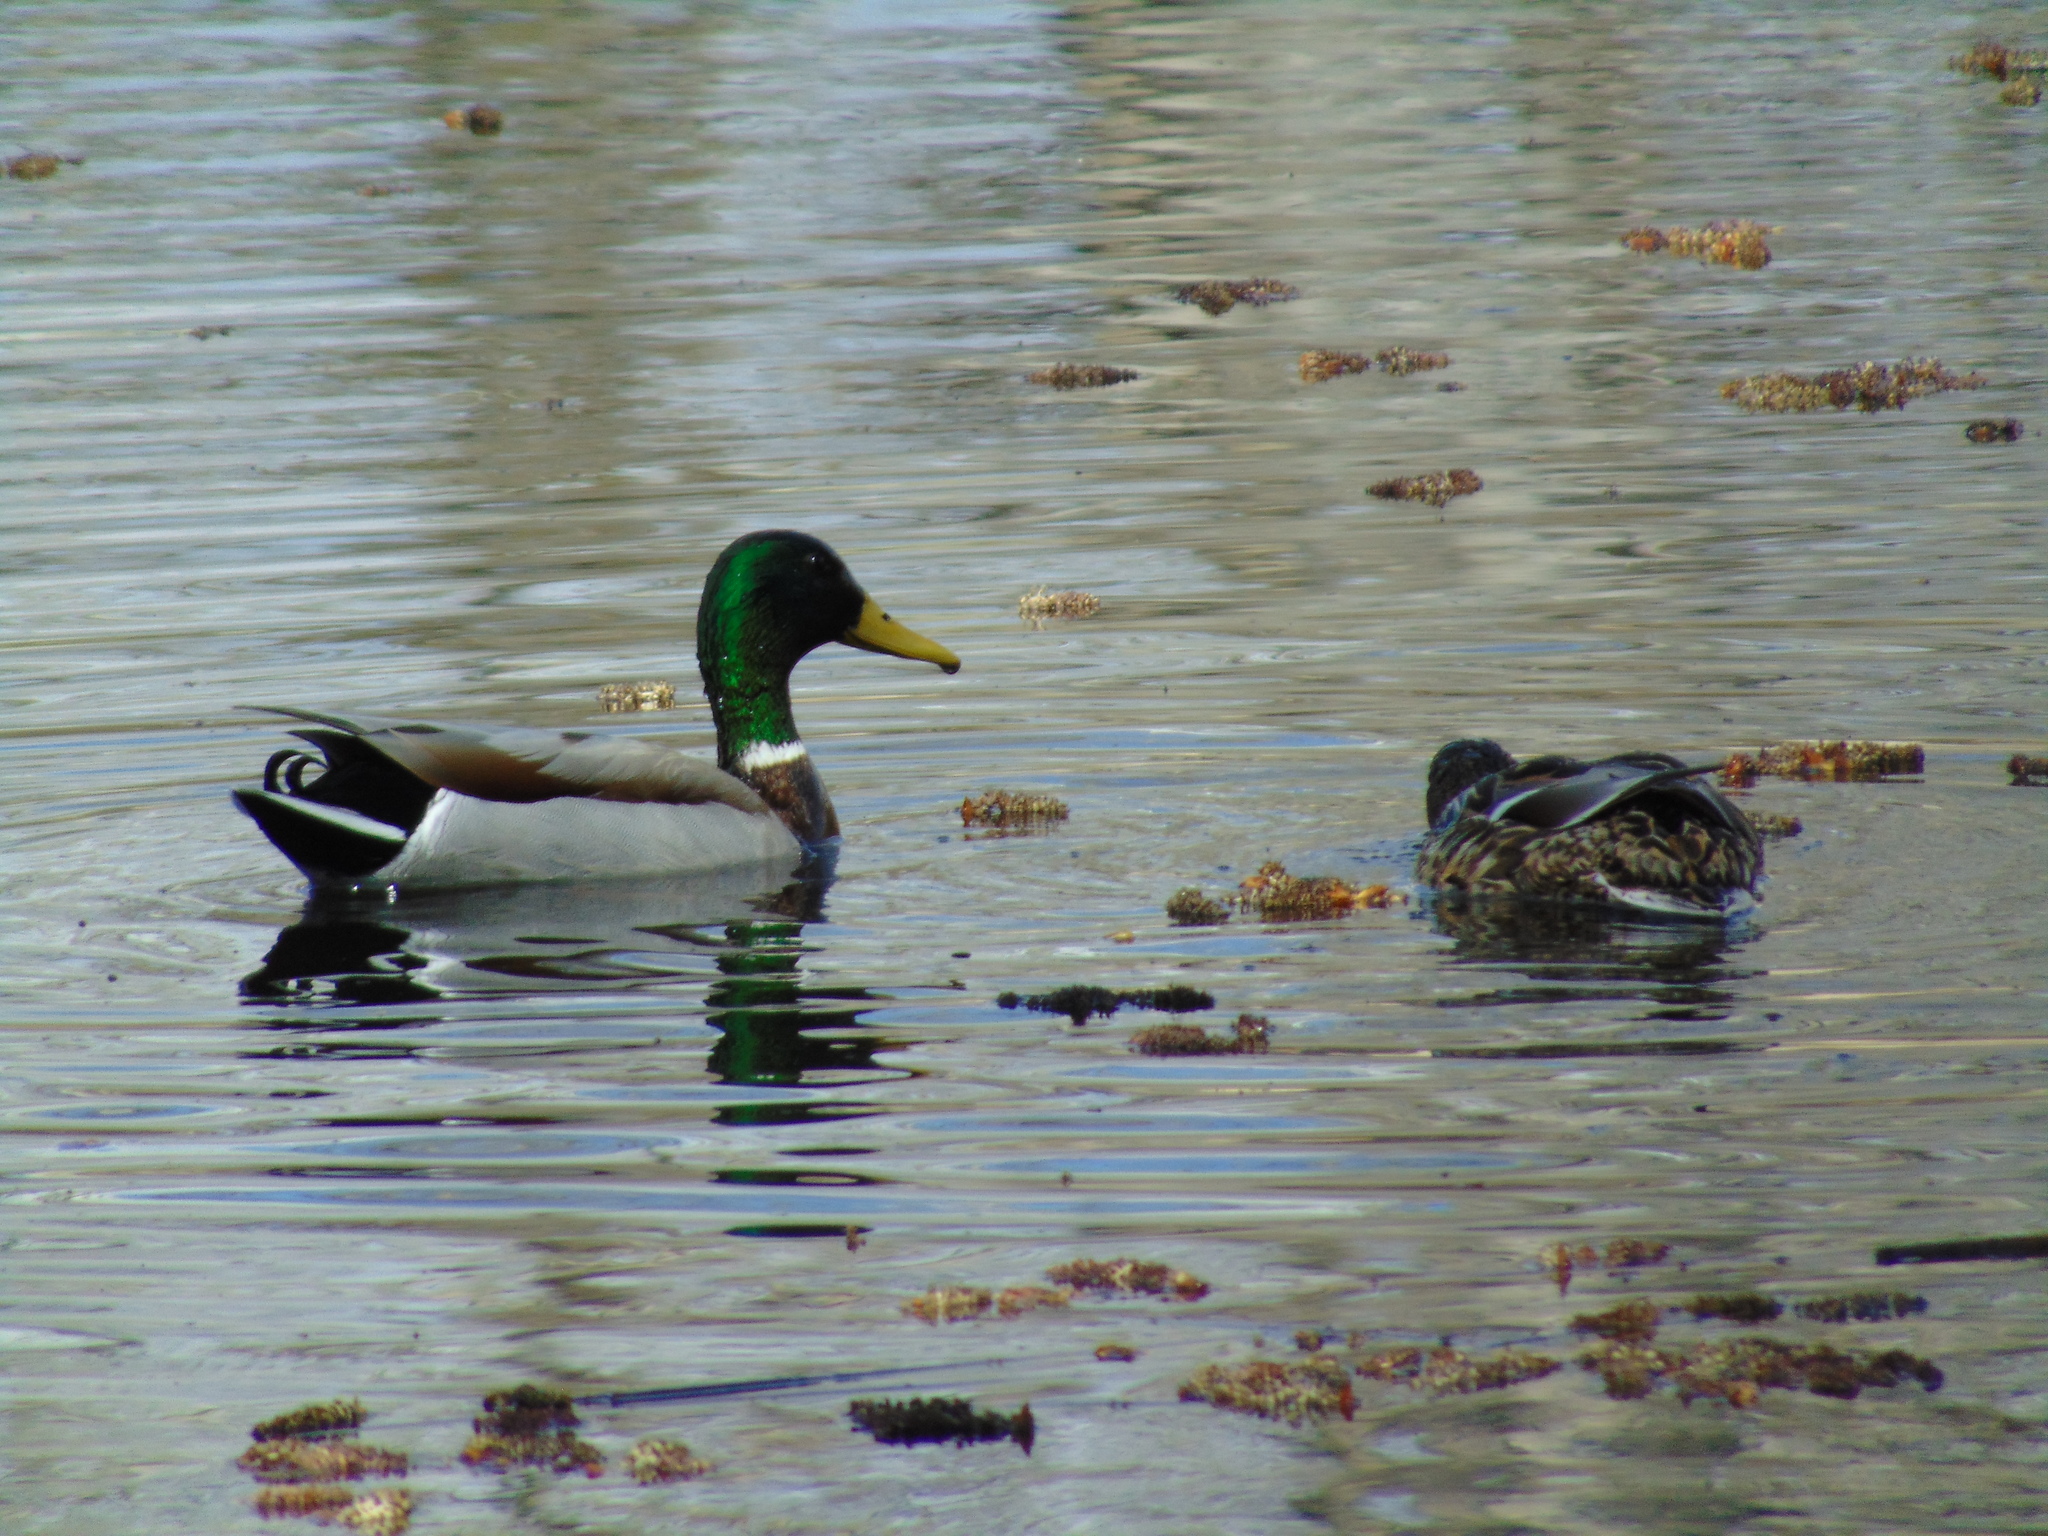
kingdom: Animalia
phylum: Chordata
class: Aves
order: Anseriformes
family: Anatidae
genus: Anas
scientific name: Anas platyrhynchos
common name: Mallard
